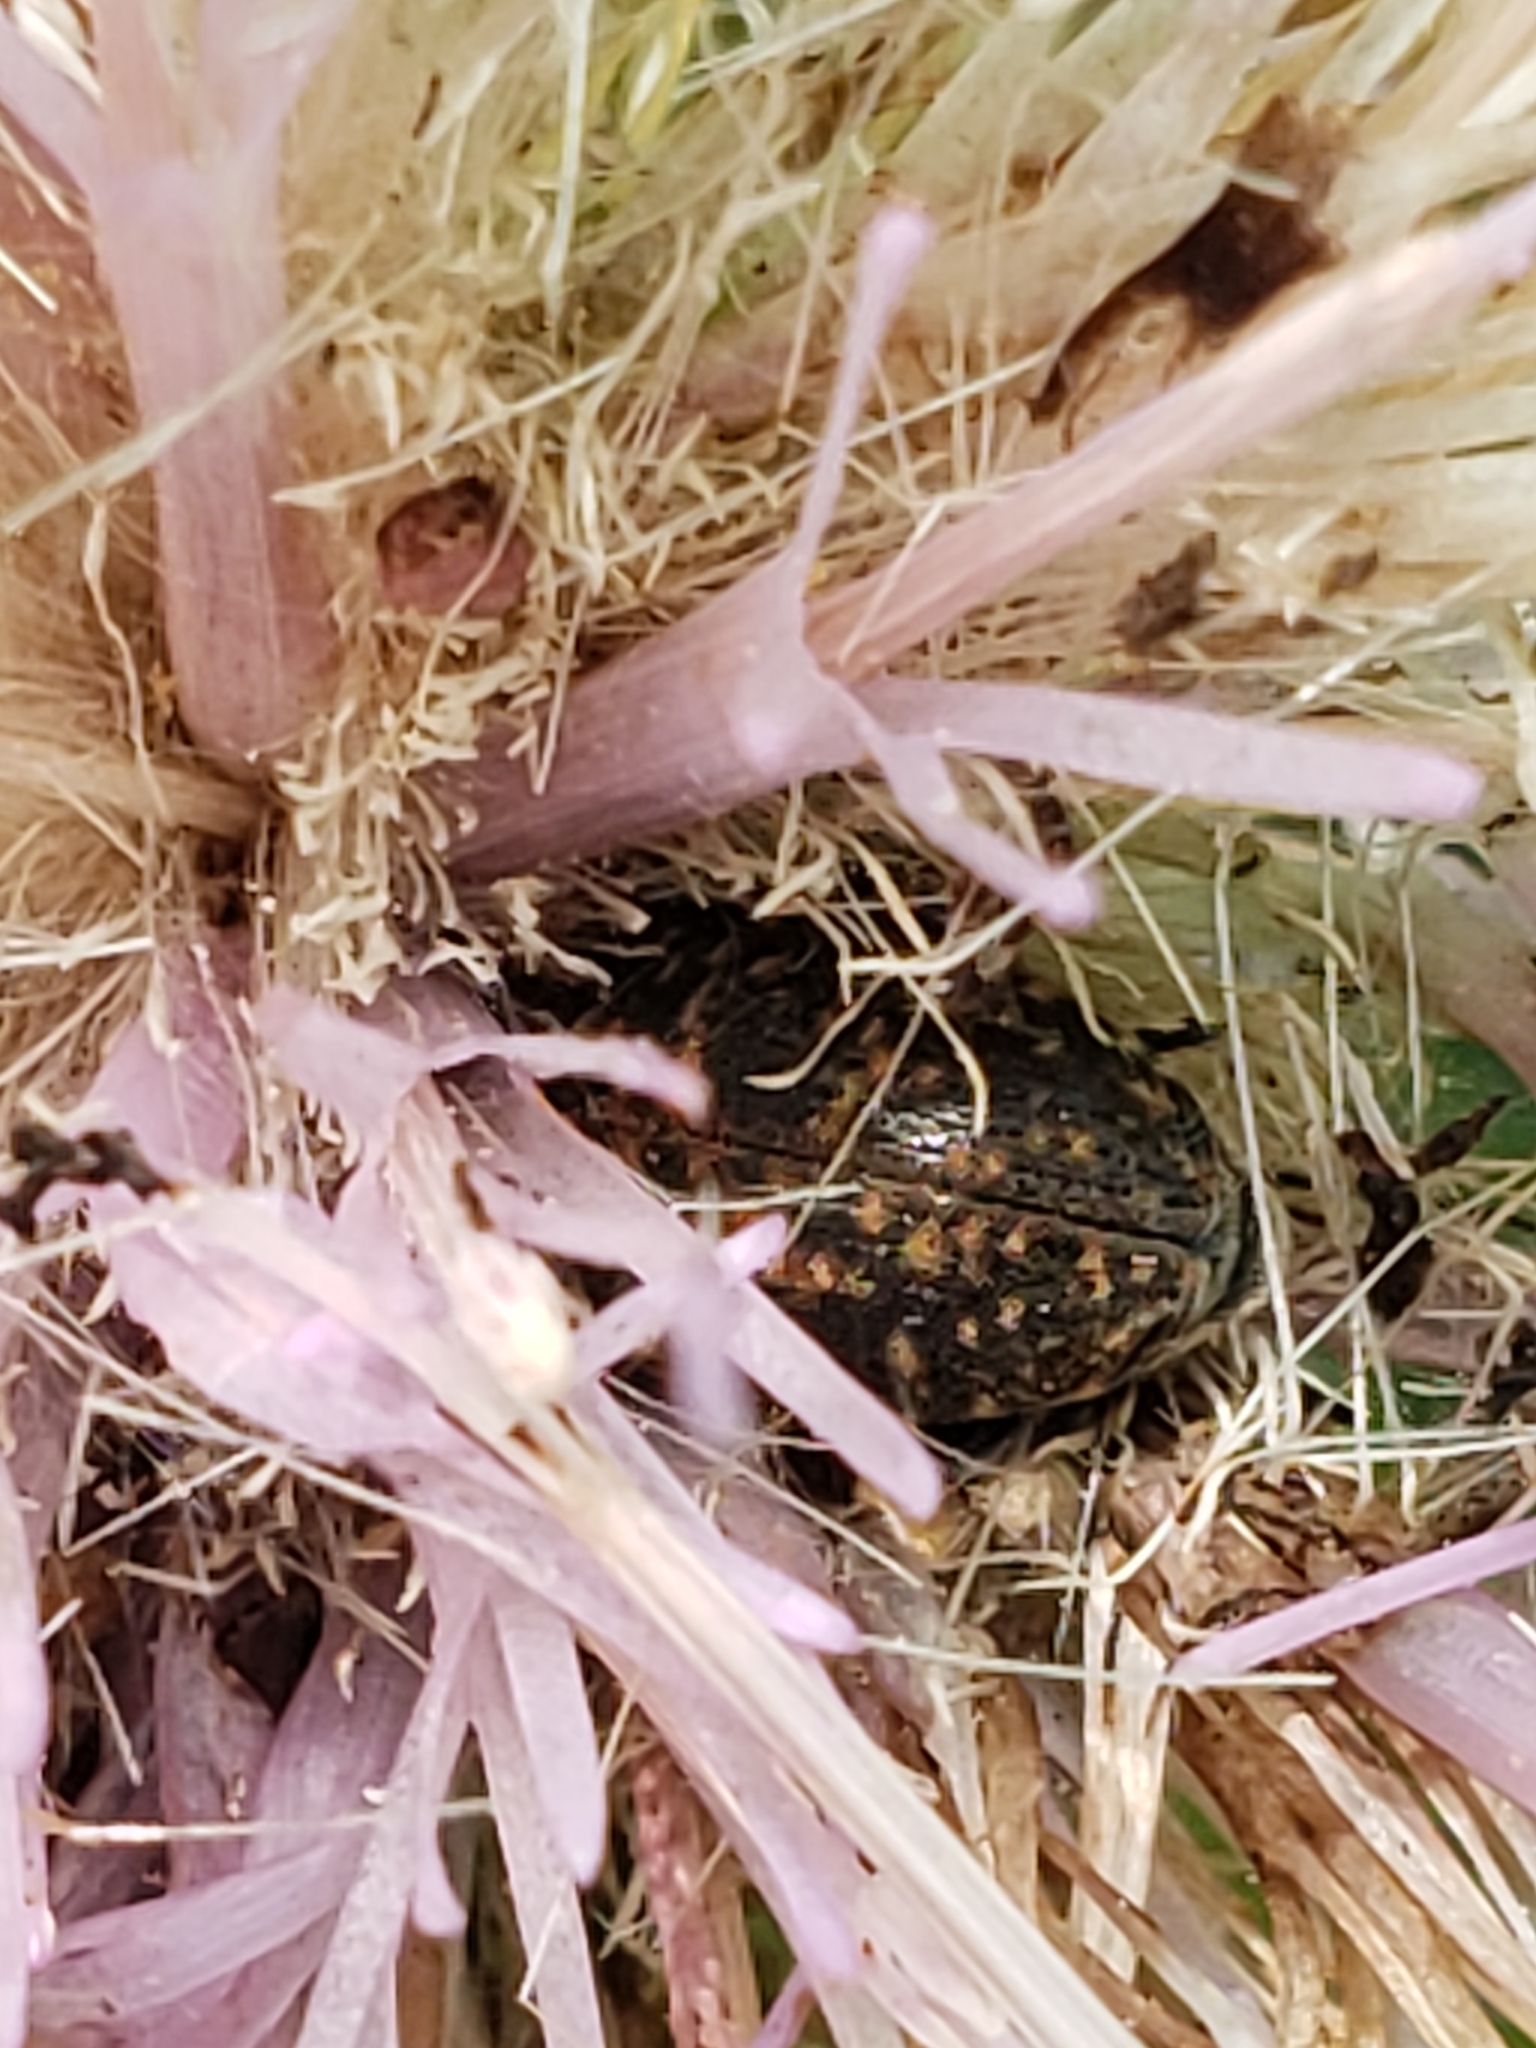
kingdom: Animalia
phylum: Arthropoda
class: Insecta
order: Coleoptera
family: Curculionidae
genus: Larinus
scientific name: Larinus turbinatus
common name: Weevil
